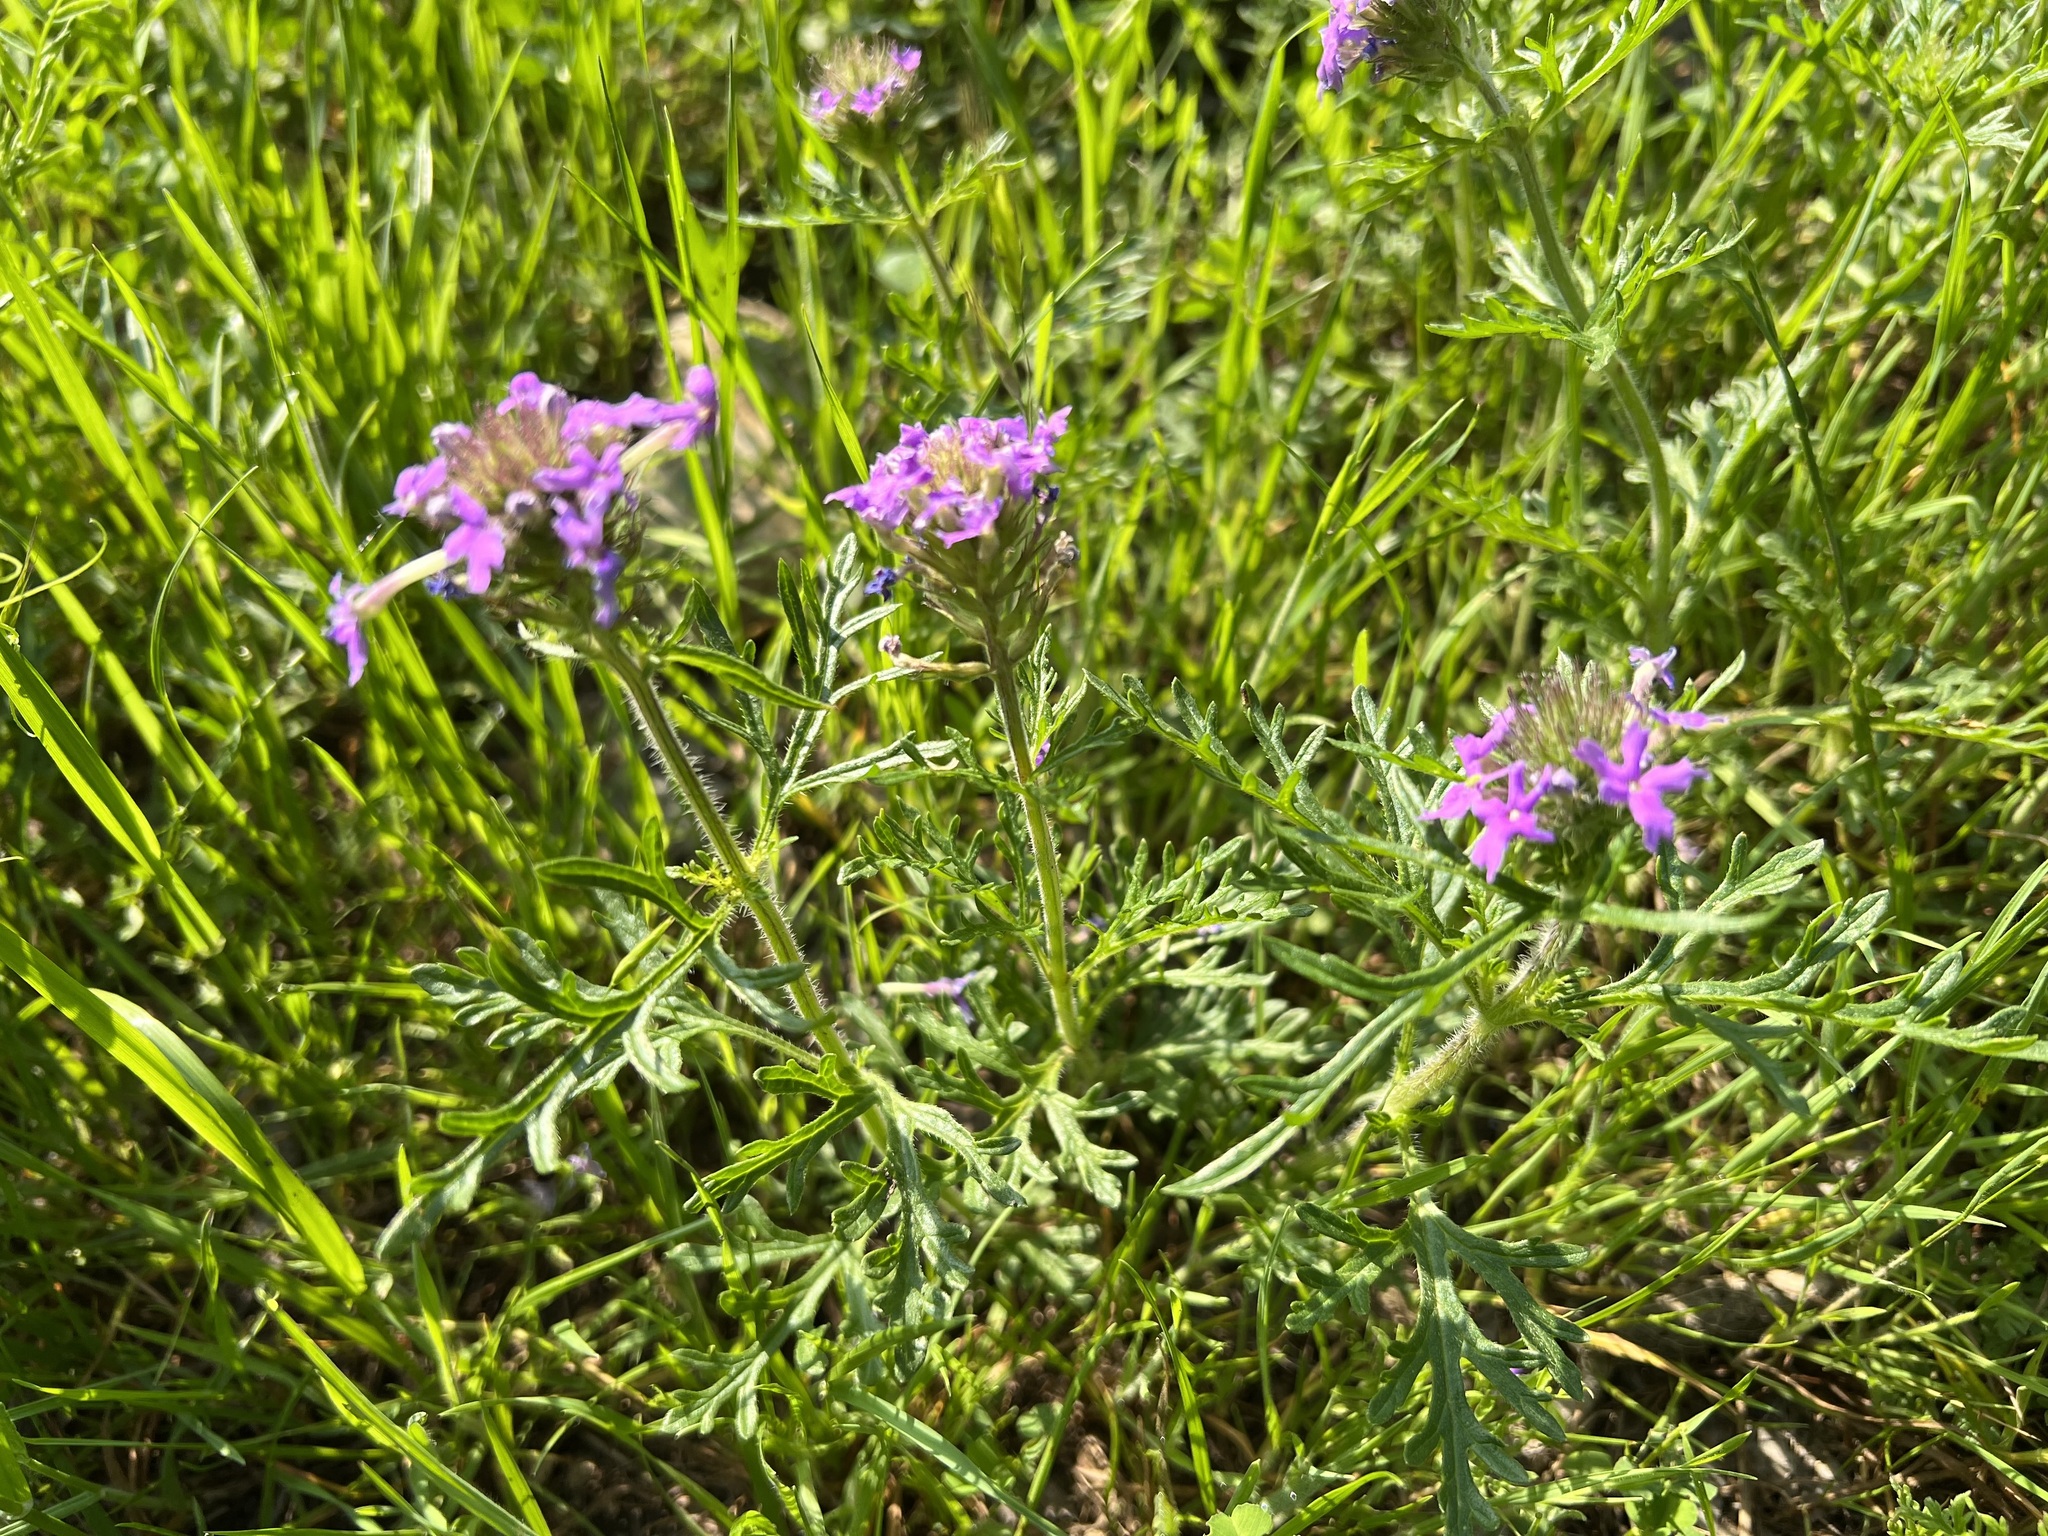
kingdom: Plantae
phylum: Tracheophyta
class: Magnoliopsida
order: Lamiales
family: Verbenaceae
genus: Verbena
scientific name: Verbena bipinnatifida
